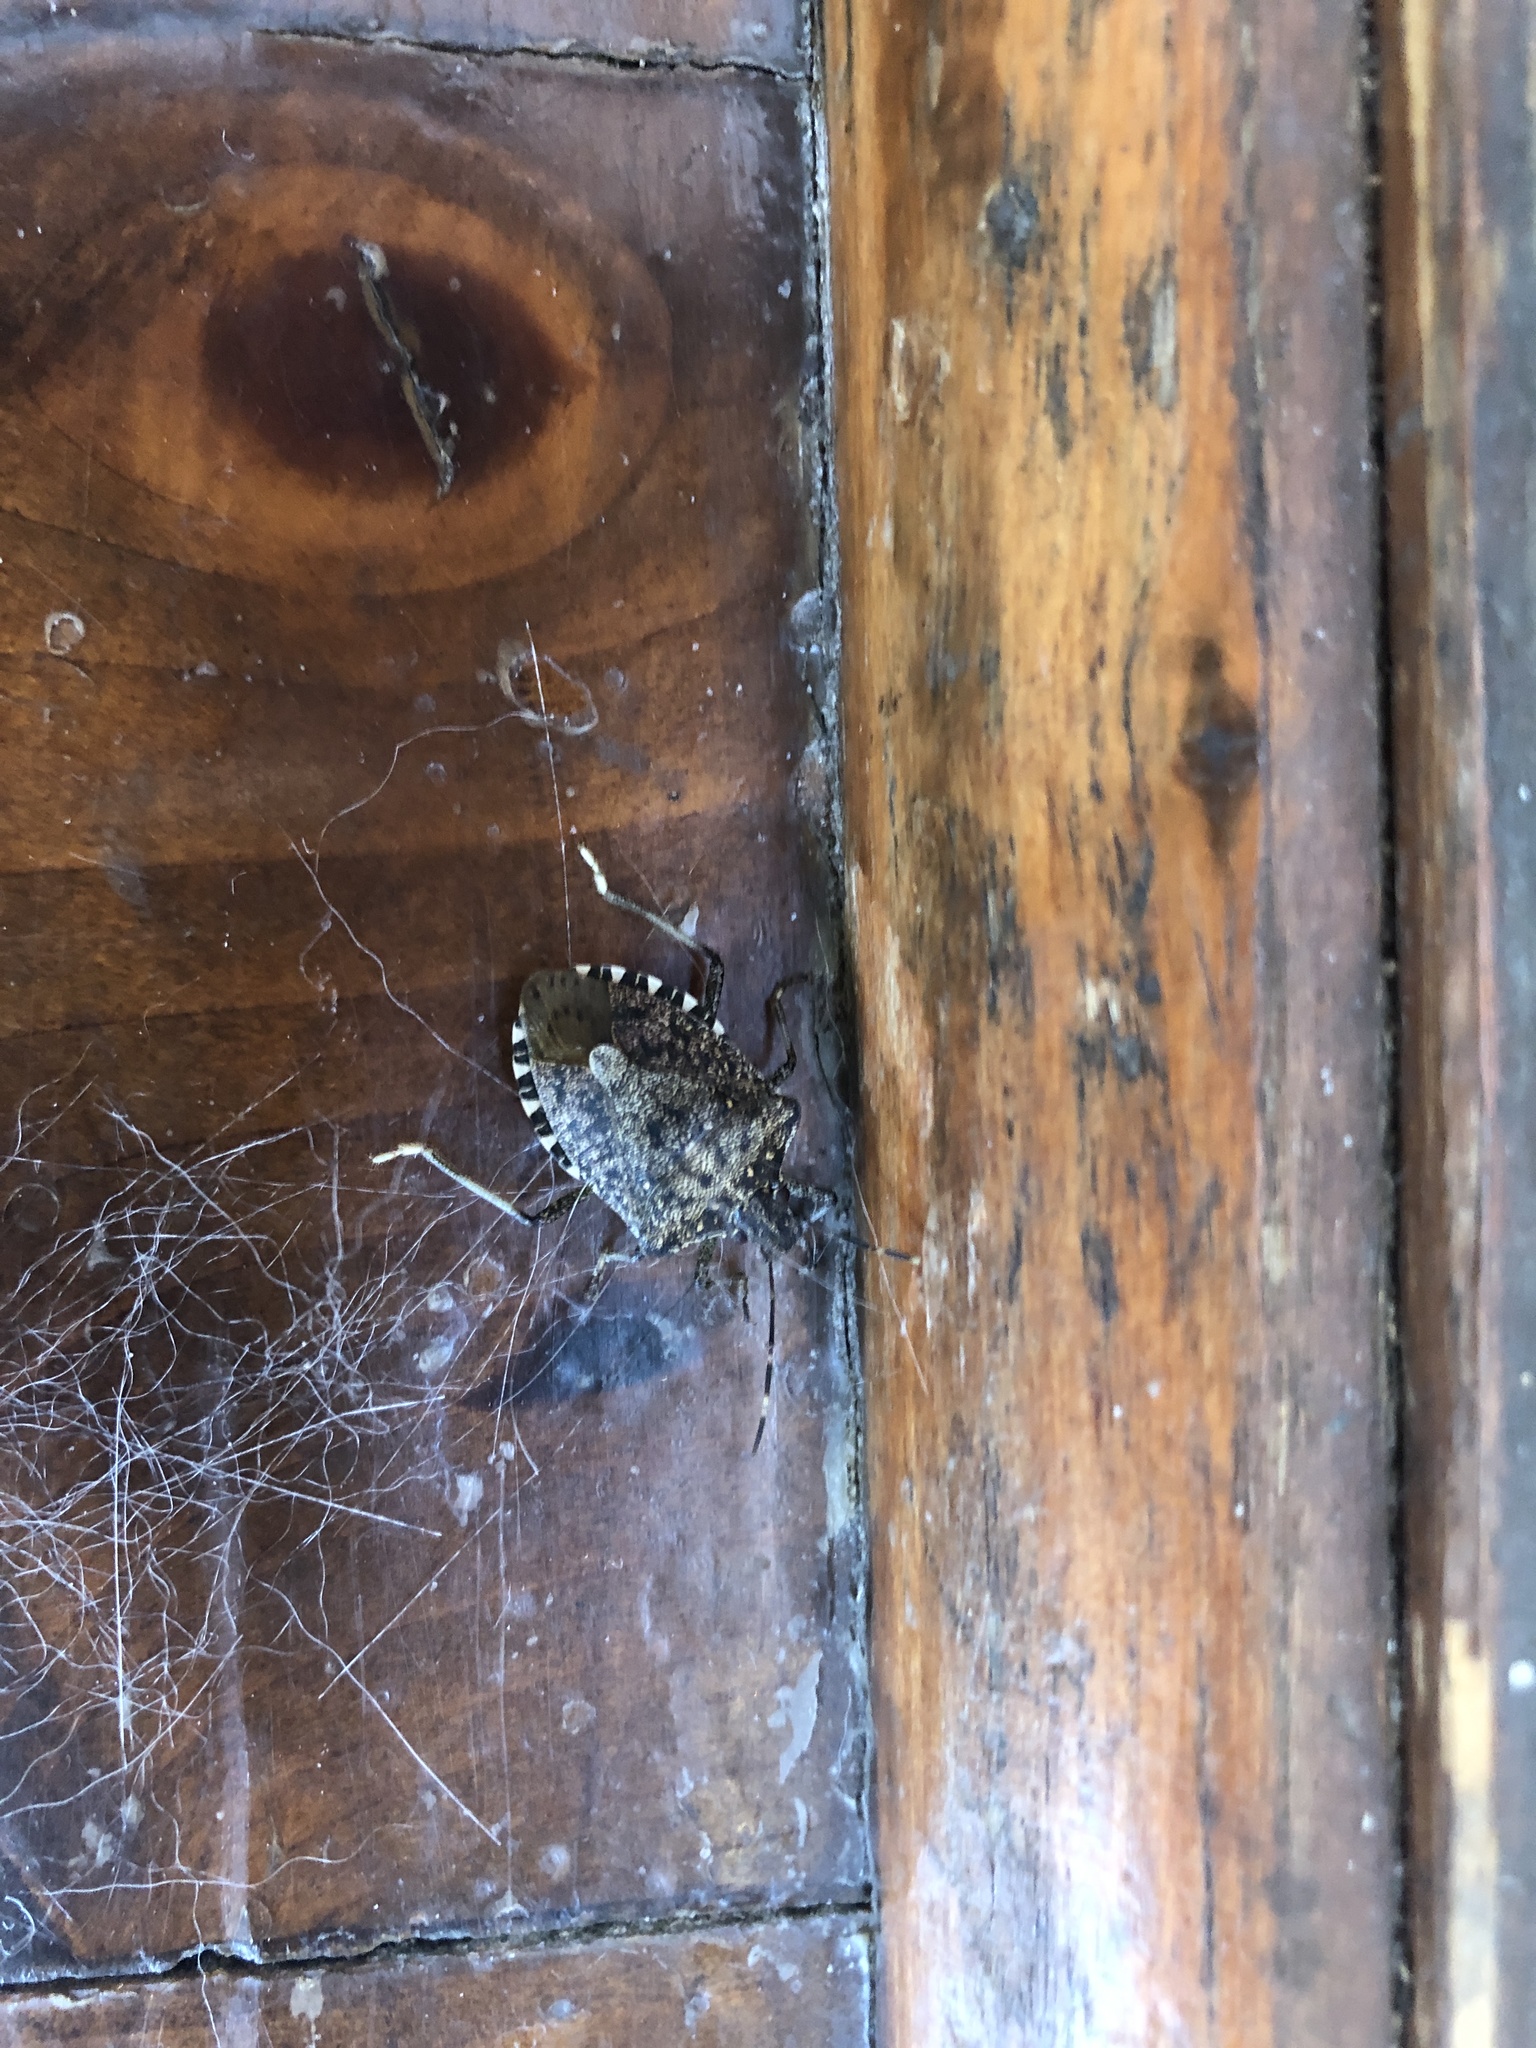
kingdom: Animalia
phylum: Arthropoda
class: Insecta
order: Hemiptera
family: Pentatomidae
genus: Halyomorpha
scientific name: Halyomorpha halys
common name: Brown marmorated stink bug
